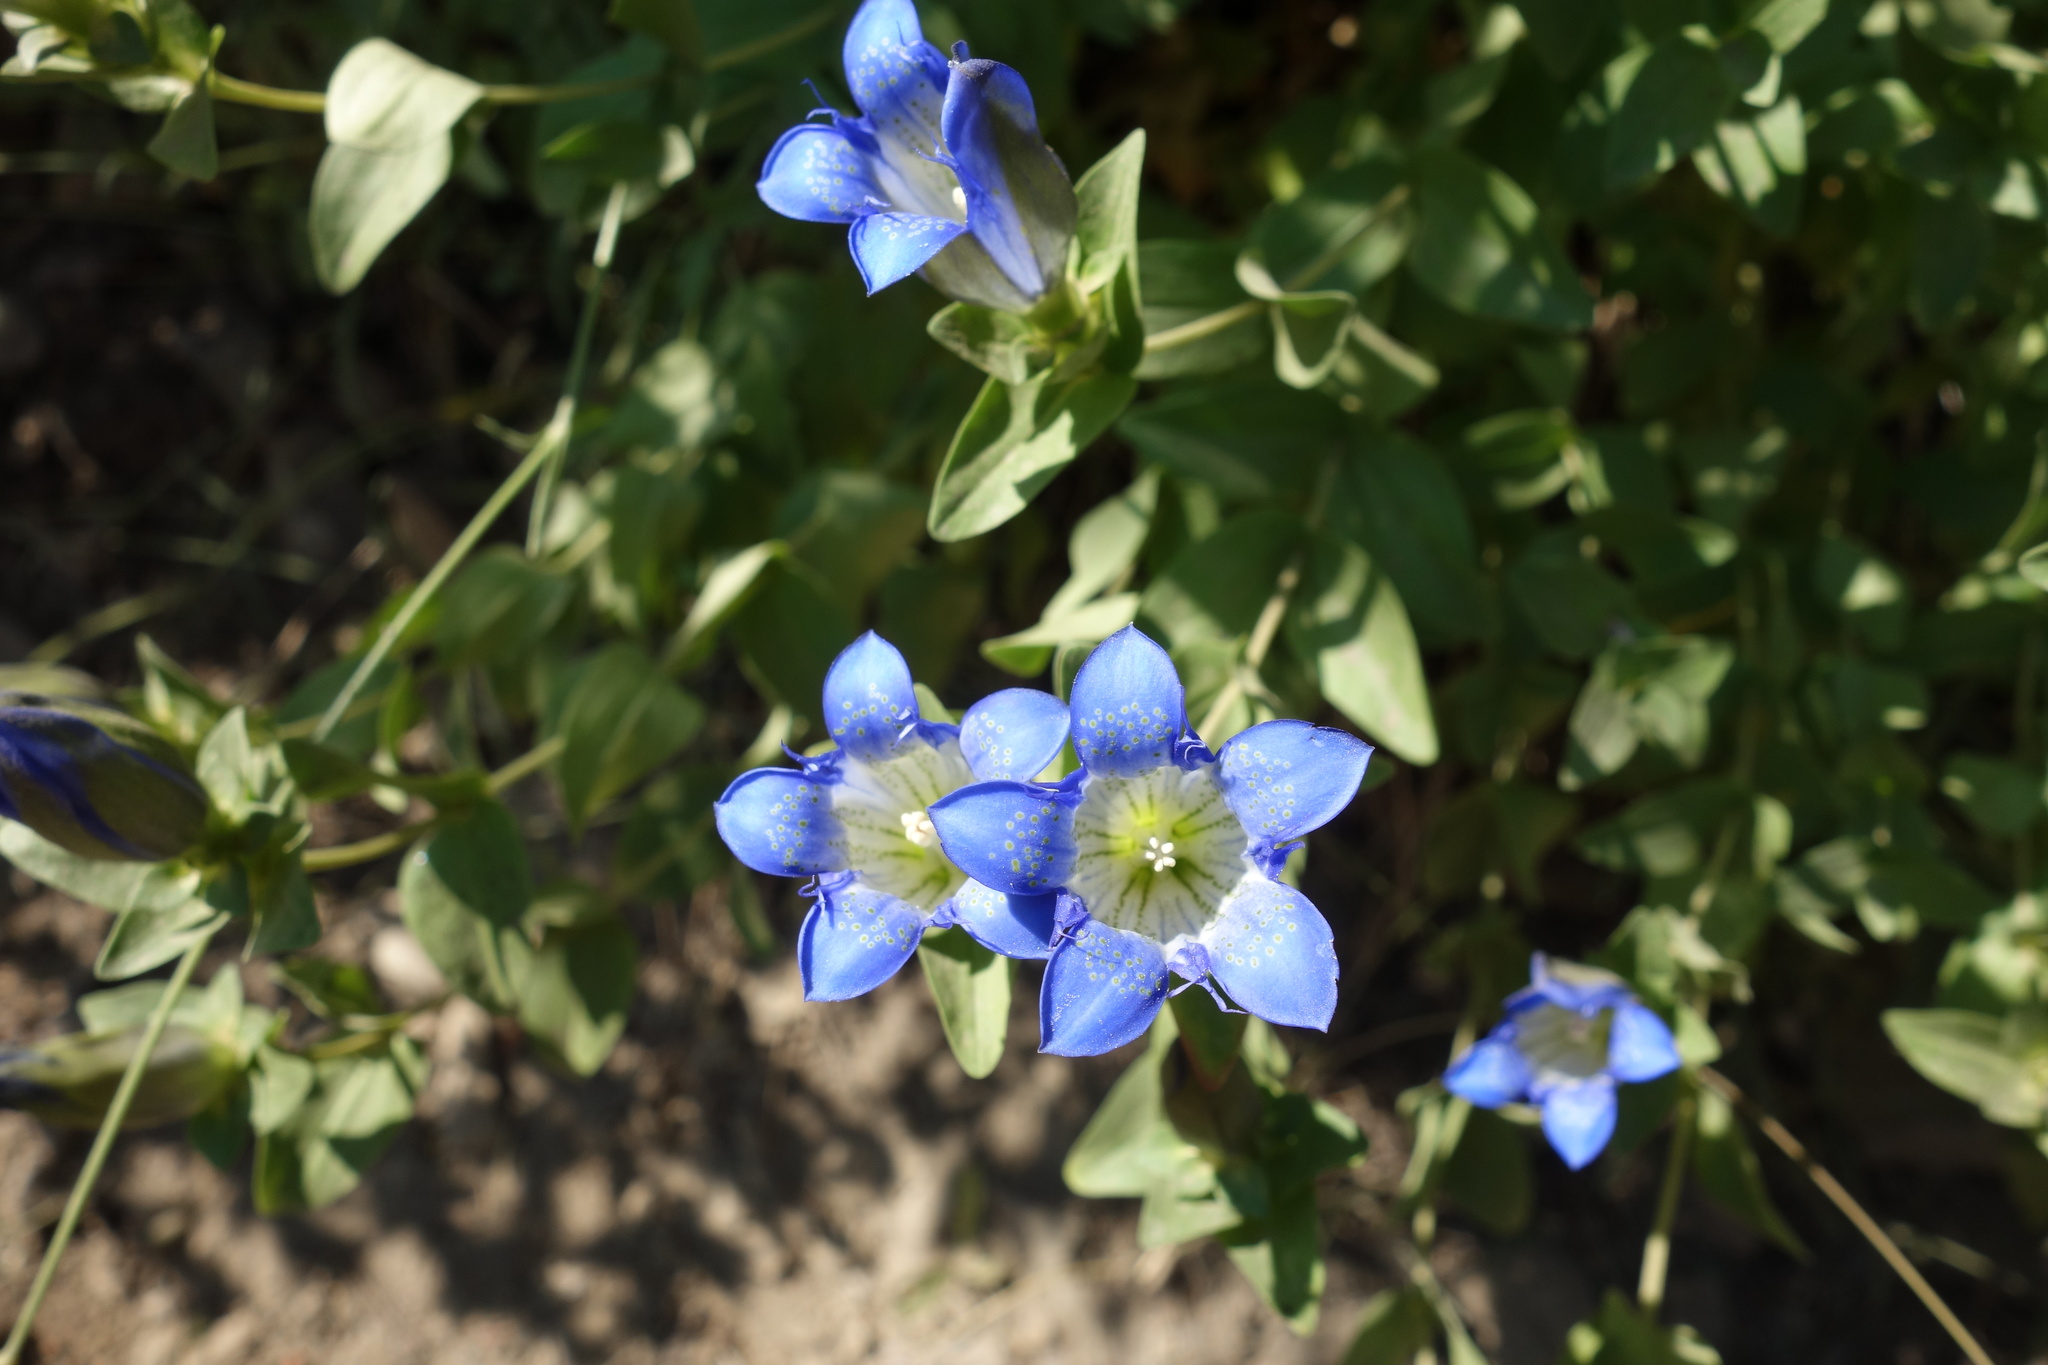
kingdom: Plantae
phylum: Tracheophyta
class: Magnoliopsida
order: Gentianales
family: Gentianaceae
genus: Gentiana
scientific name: Gentiana calycosa
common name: Rainier pleated gentian
